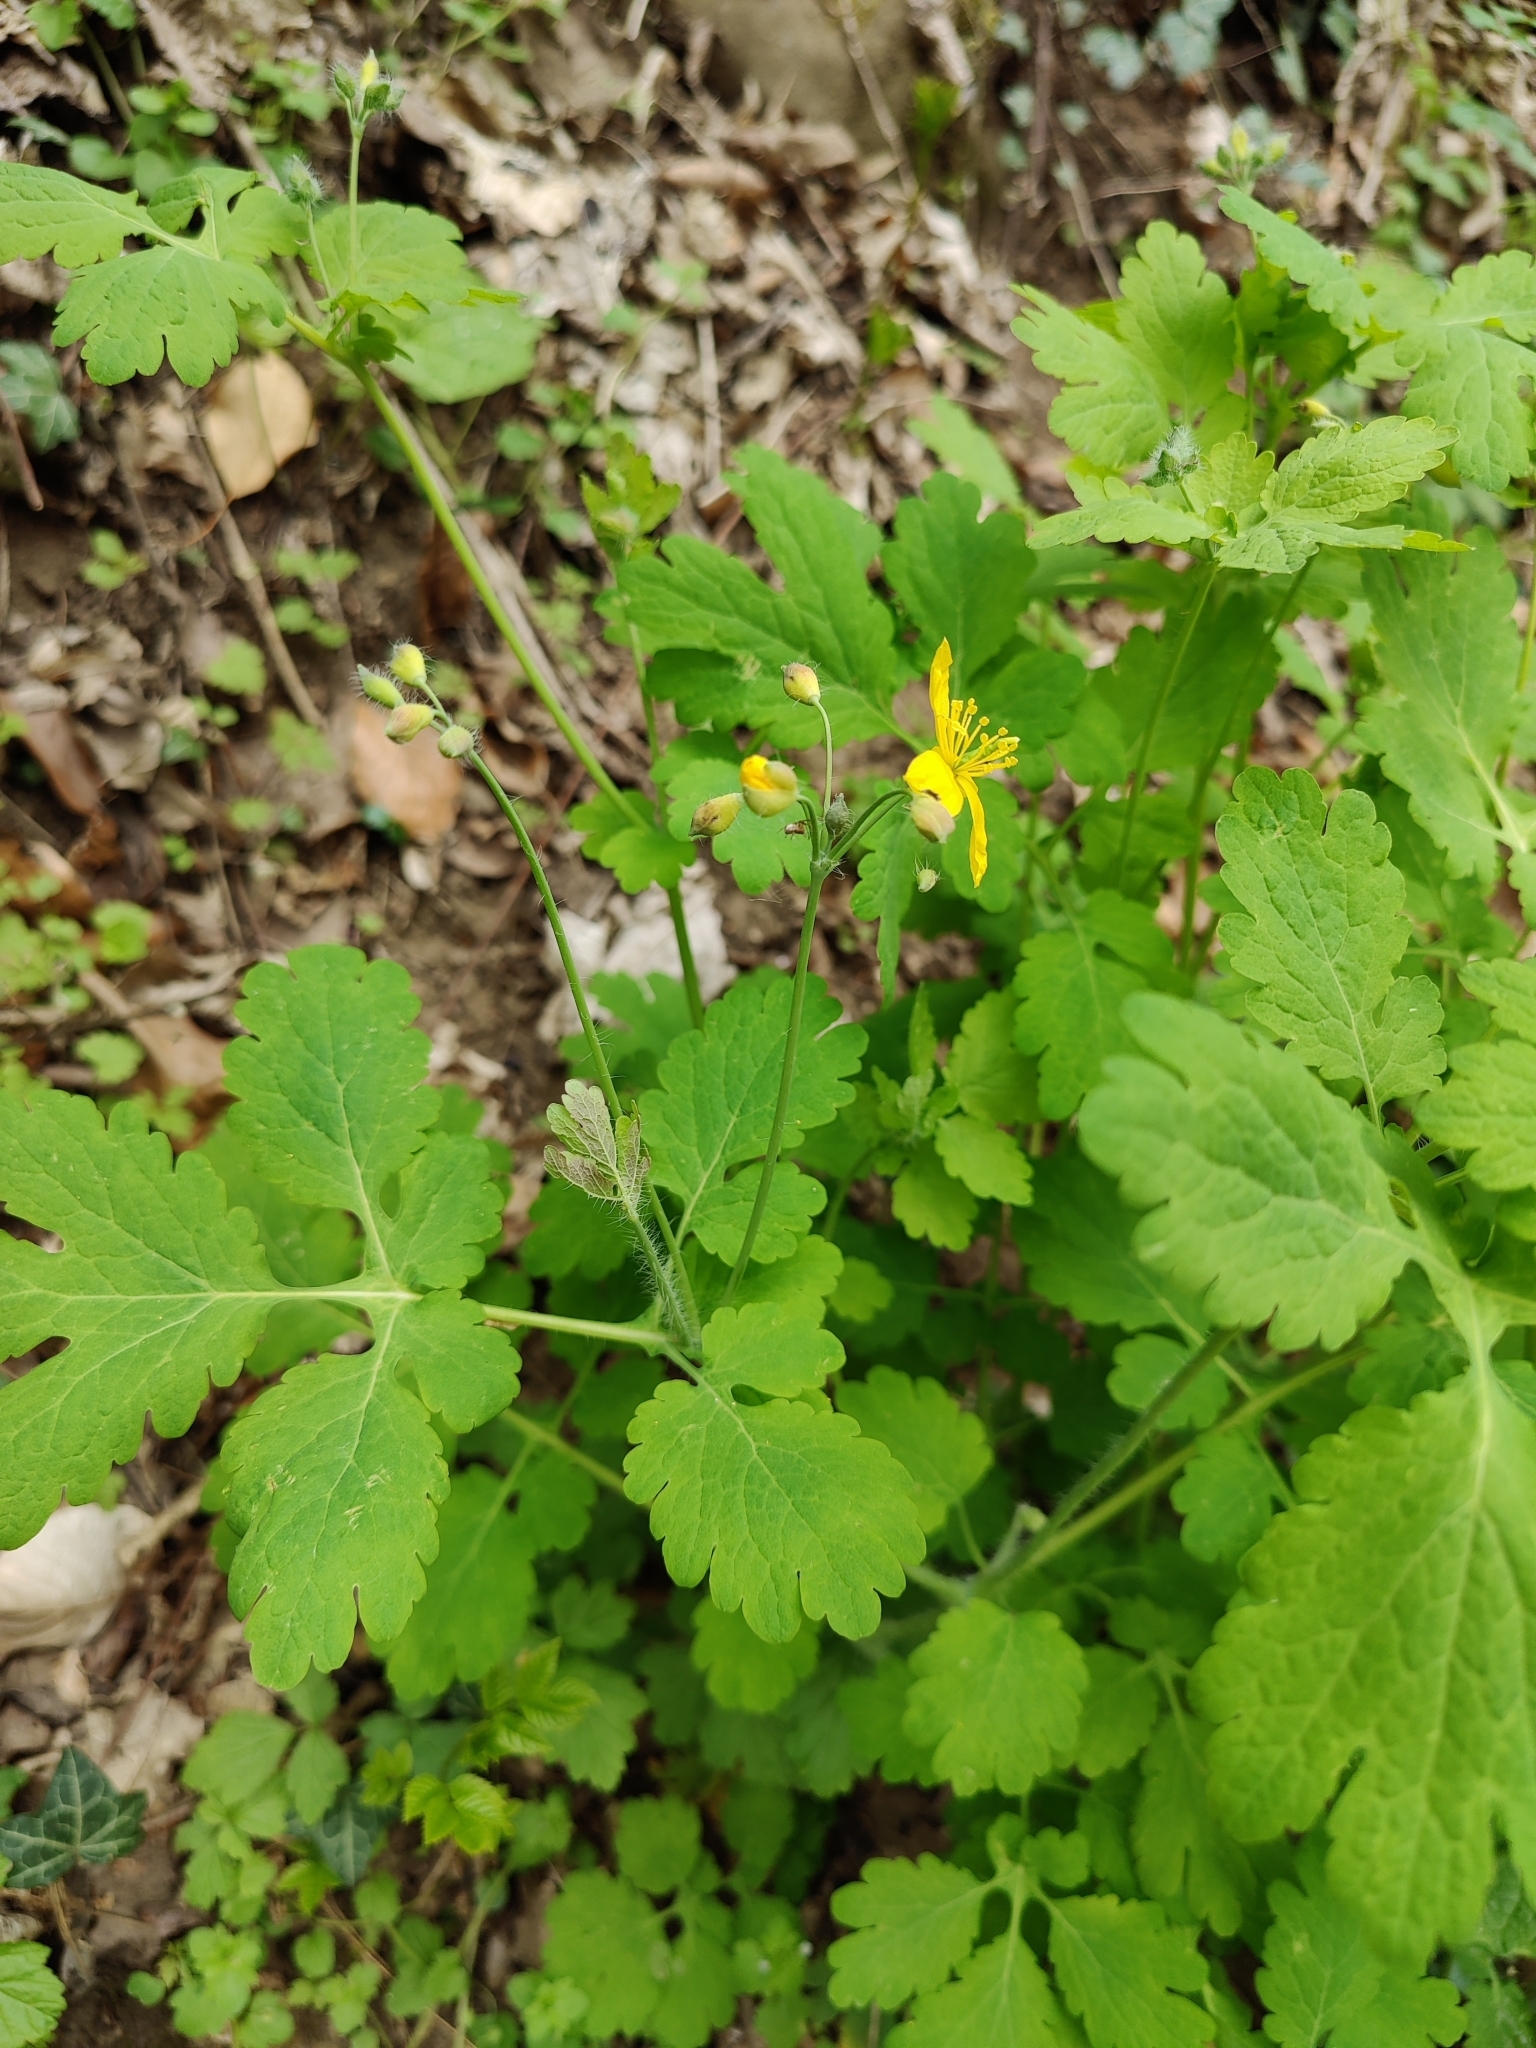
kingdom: Plantae
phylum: Tracheophyta
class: Magnoliopsida
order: Ranunculales
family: Papaveraceae
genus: Chelidonium
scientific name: Chelidonium majus
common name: Greater celandine
